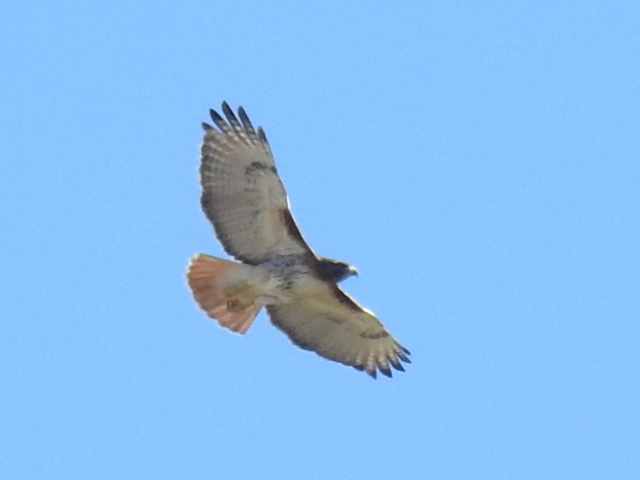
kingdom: Animalia
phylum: Chordata
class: Aves
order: Accipitriformes
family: Accipitridae
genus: Buteo
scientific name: Buteo jamaicensis
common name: Red-tailed hawk
